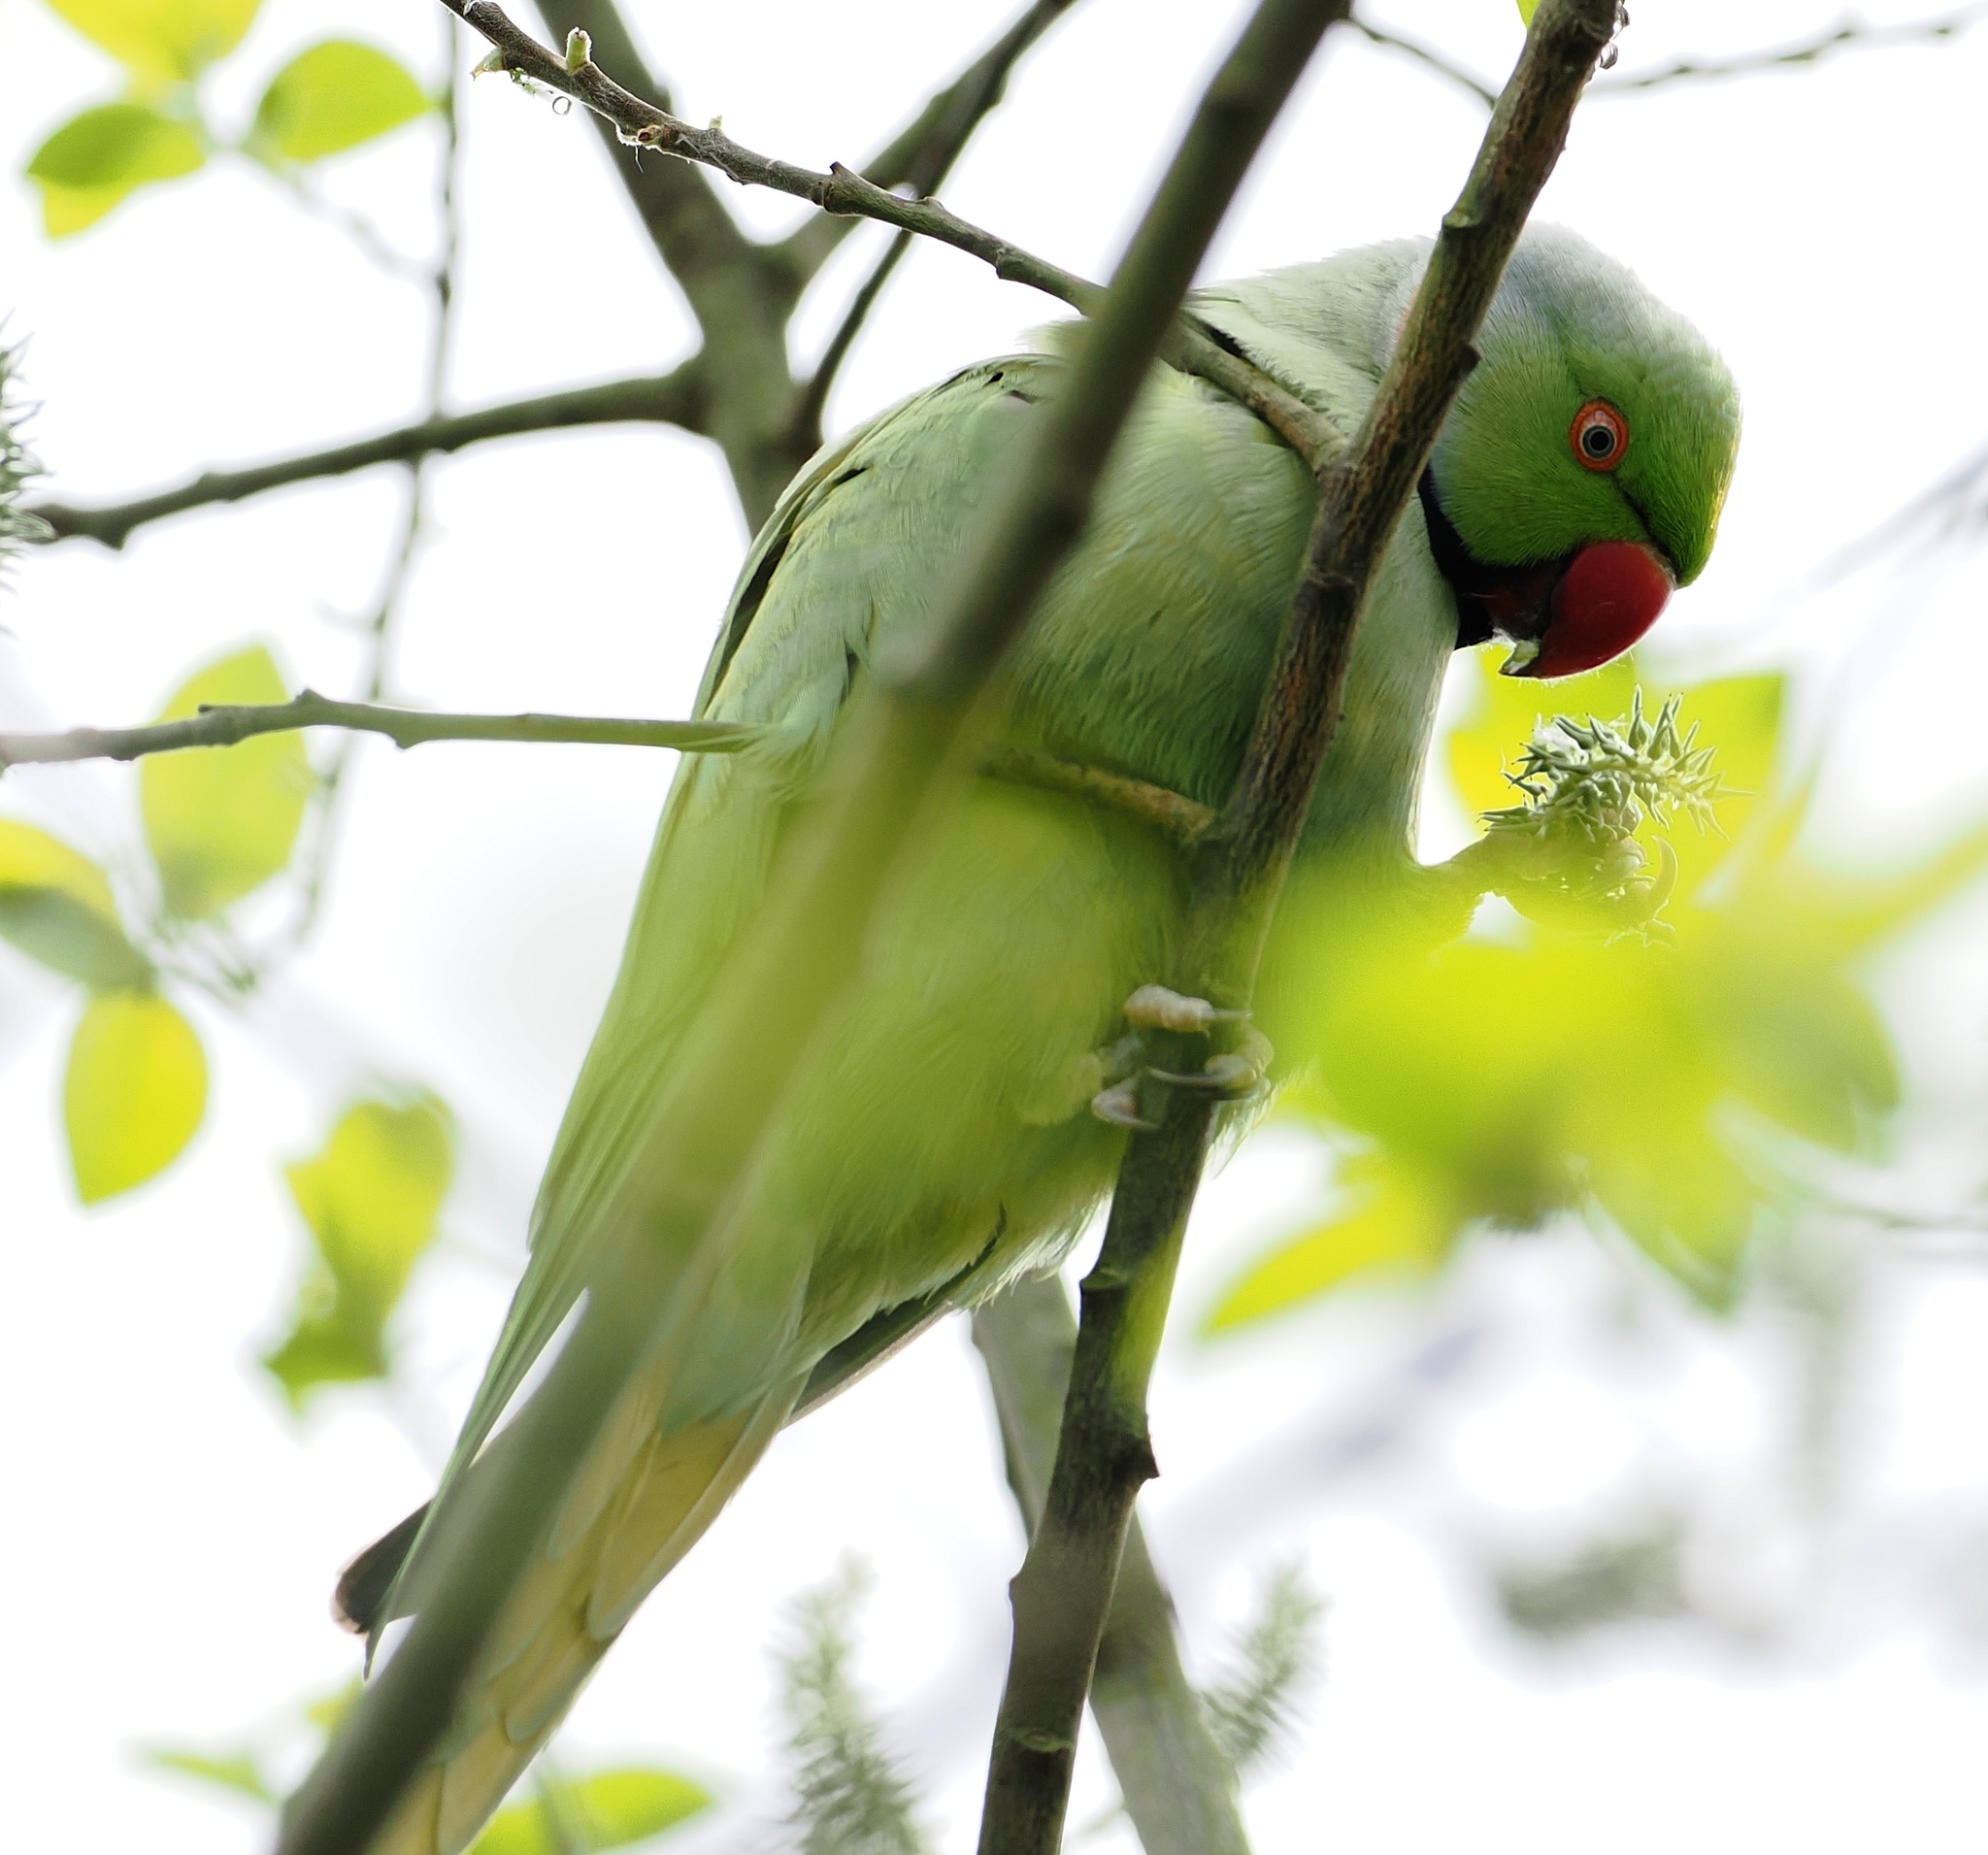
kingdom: Animalia
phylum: Chordata
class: Aves
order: Psittaciformes
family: Psittacidae
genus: Psittacula
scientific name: Psittacula krameri
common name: Rose-ringed parakeet
